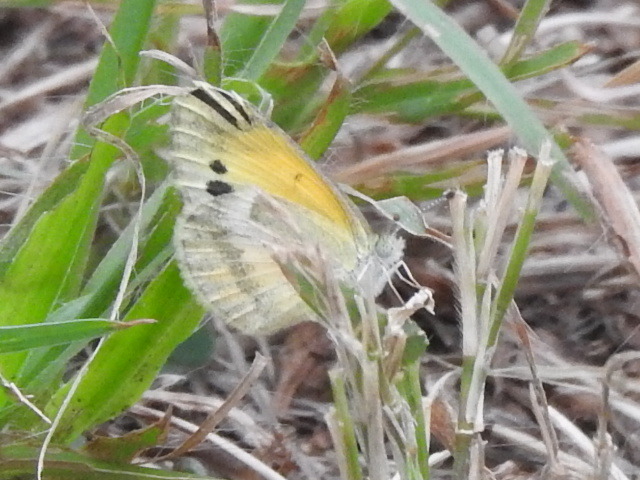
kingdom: Animalia
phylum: Arthropoda
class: Insecta
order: Lepidoptera
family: Pieridae
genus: Nathalis
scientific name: Nathalis iole
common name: Dainty sulphur
